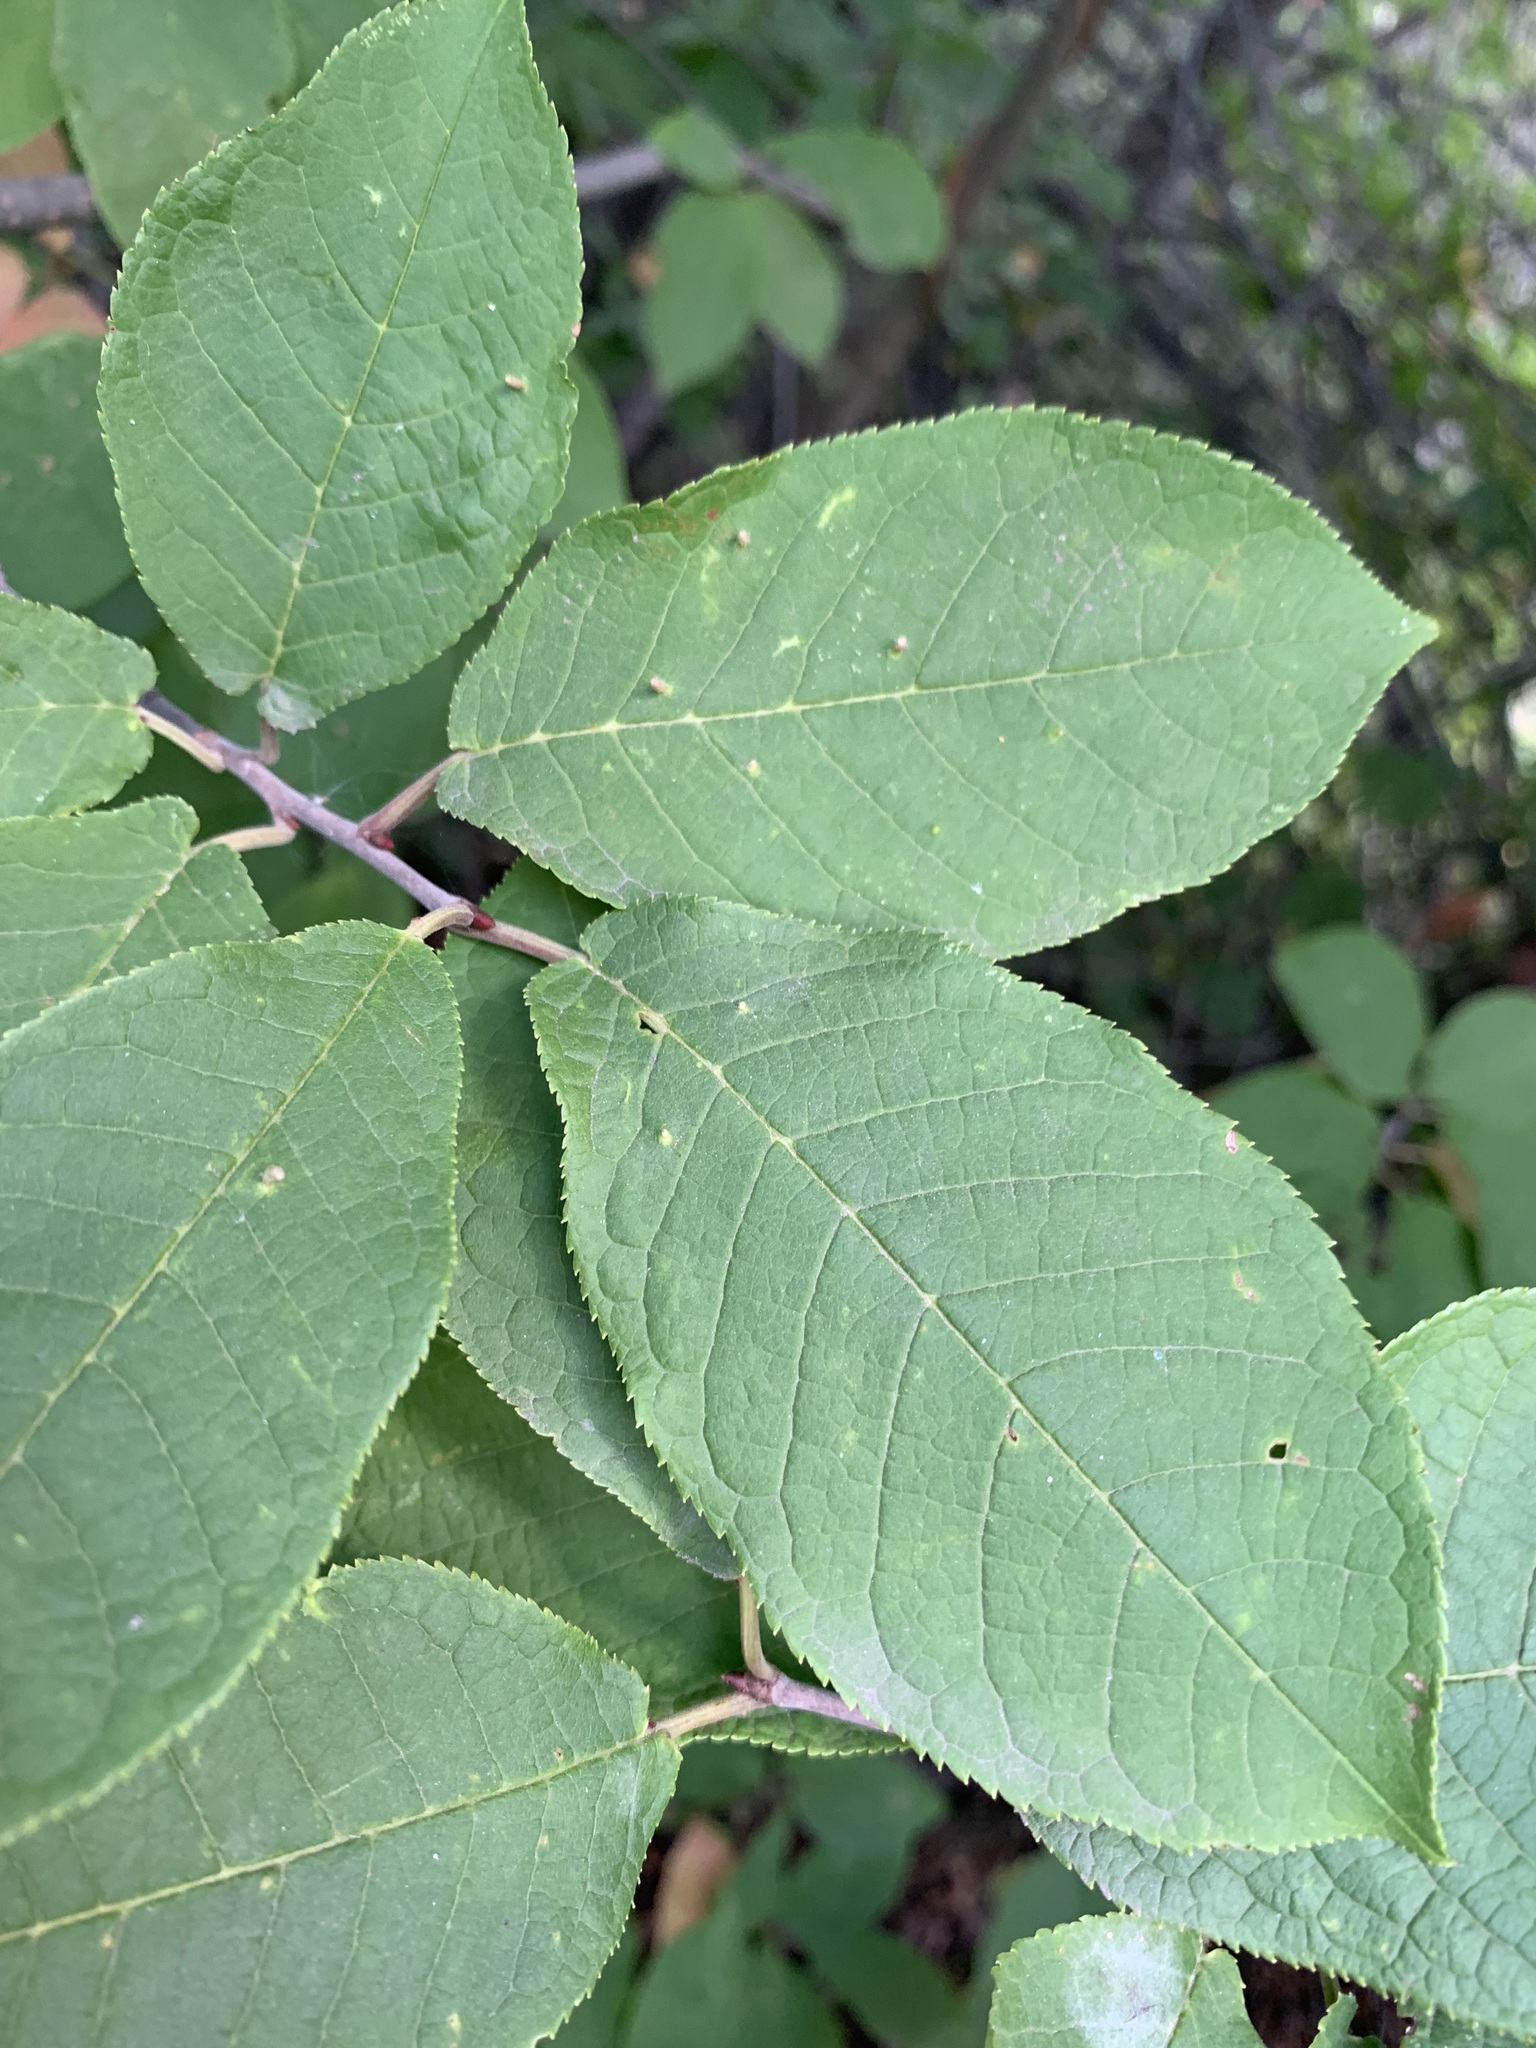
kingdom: Plantae
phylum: Tracheophyta
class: Magnoliopsida
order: Rosales
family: Rosaceae
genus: Prunus
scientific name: Prunus padus
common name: Bird cherry
